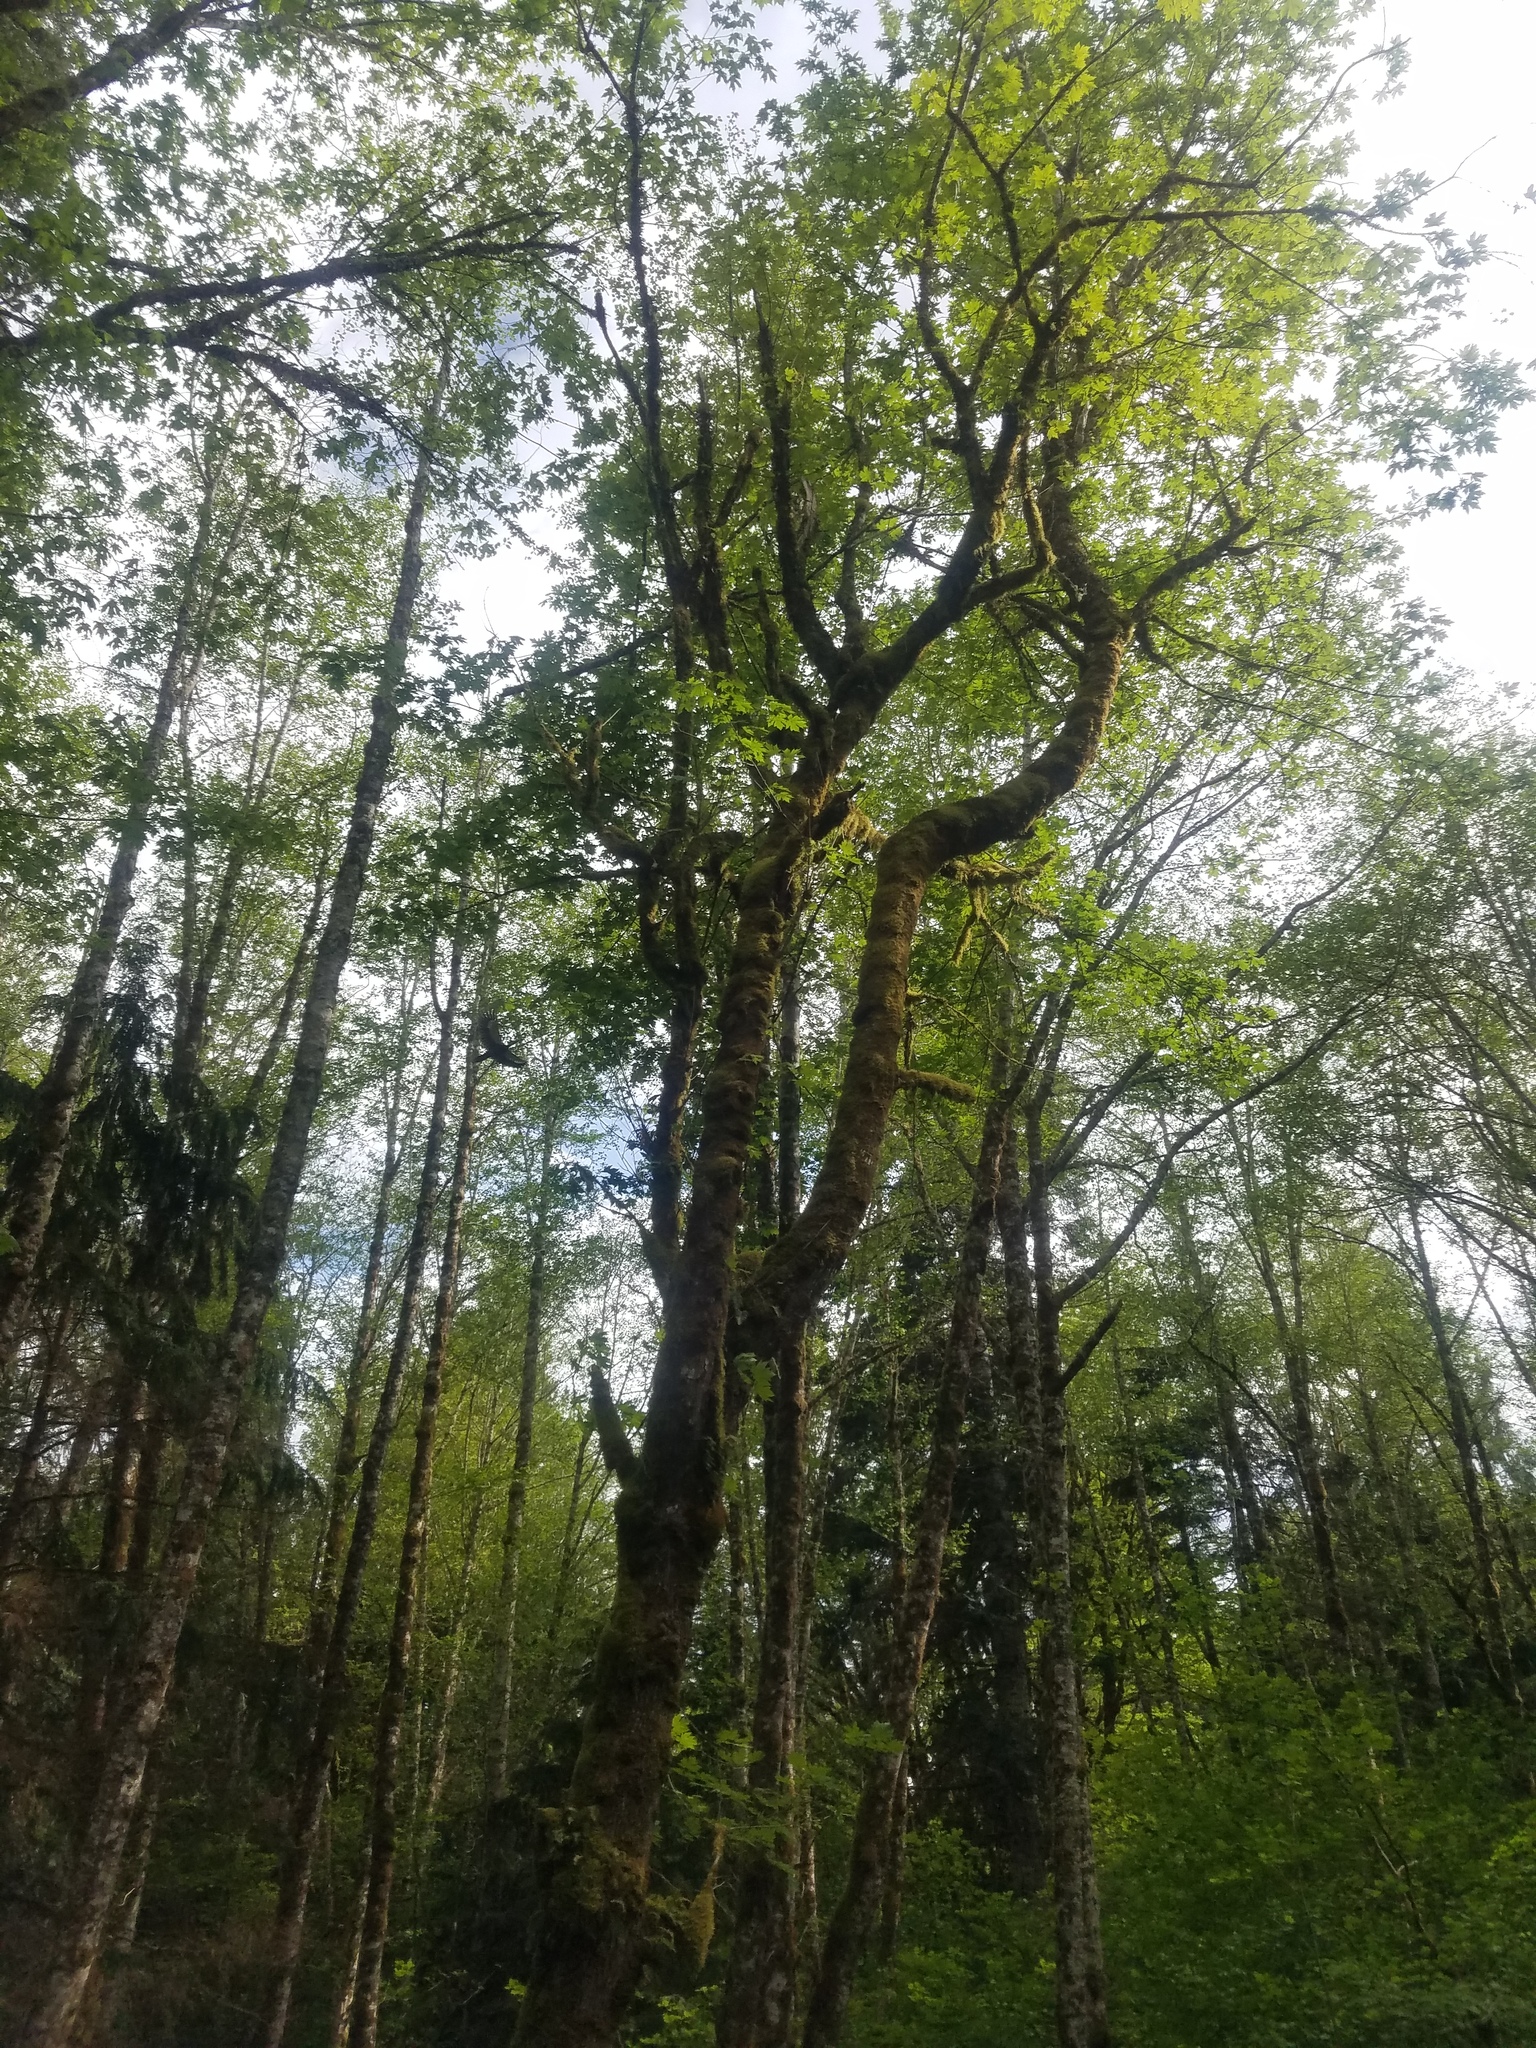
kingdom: Animalia
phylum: Chordata
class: Aves
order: Piciformes
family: Picidae
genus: Dryocopus
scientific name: Dryocopus pileatus
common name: Pileated woodpecker
